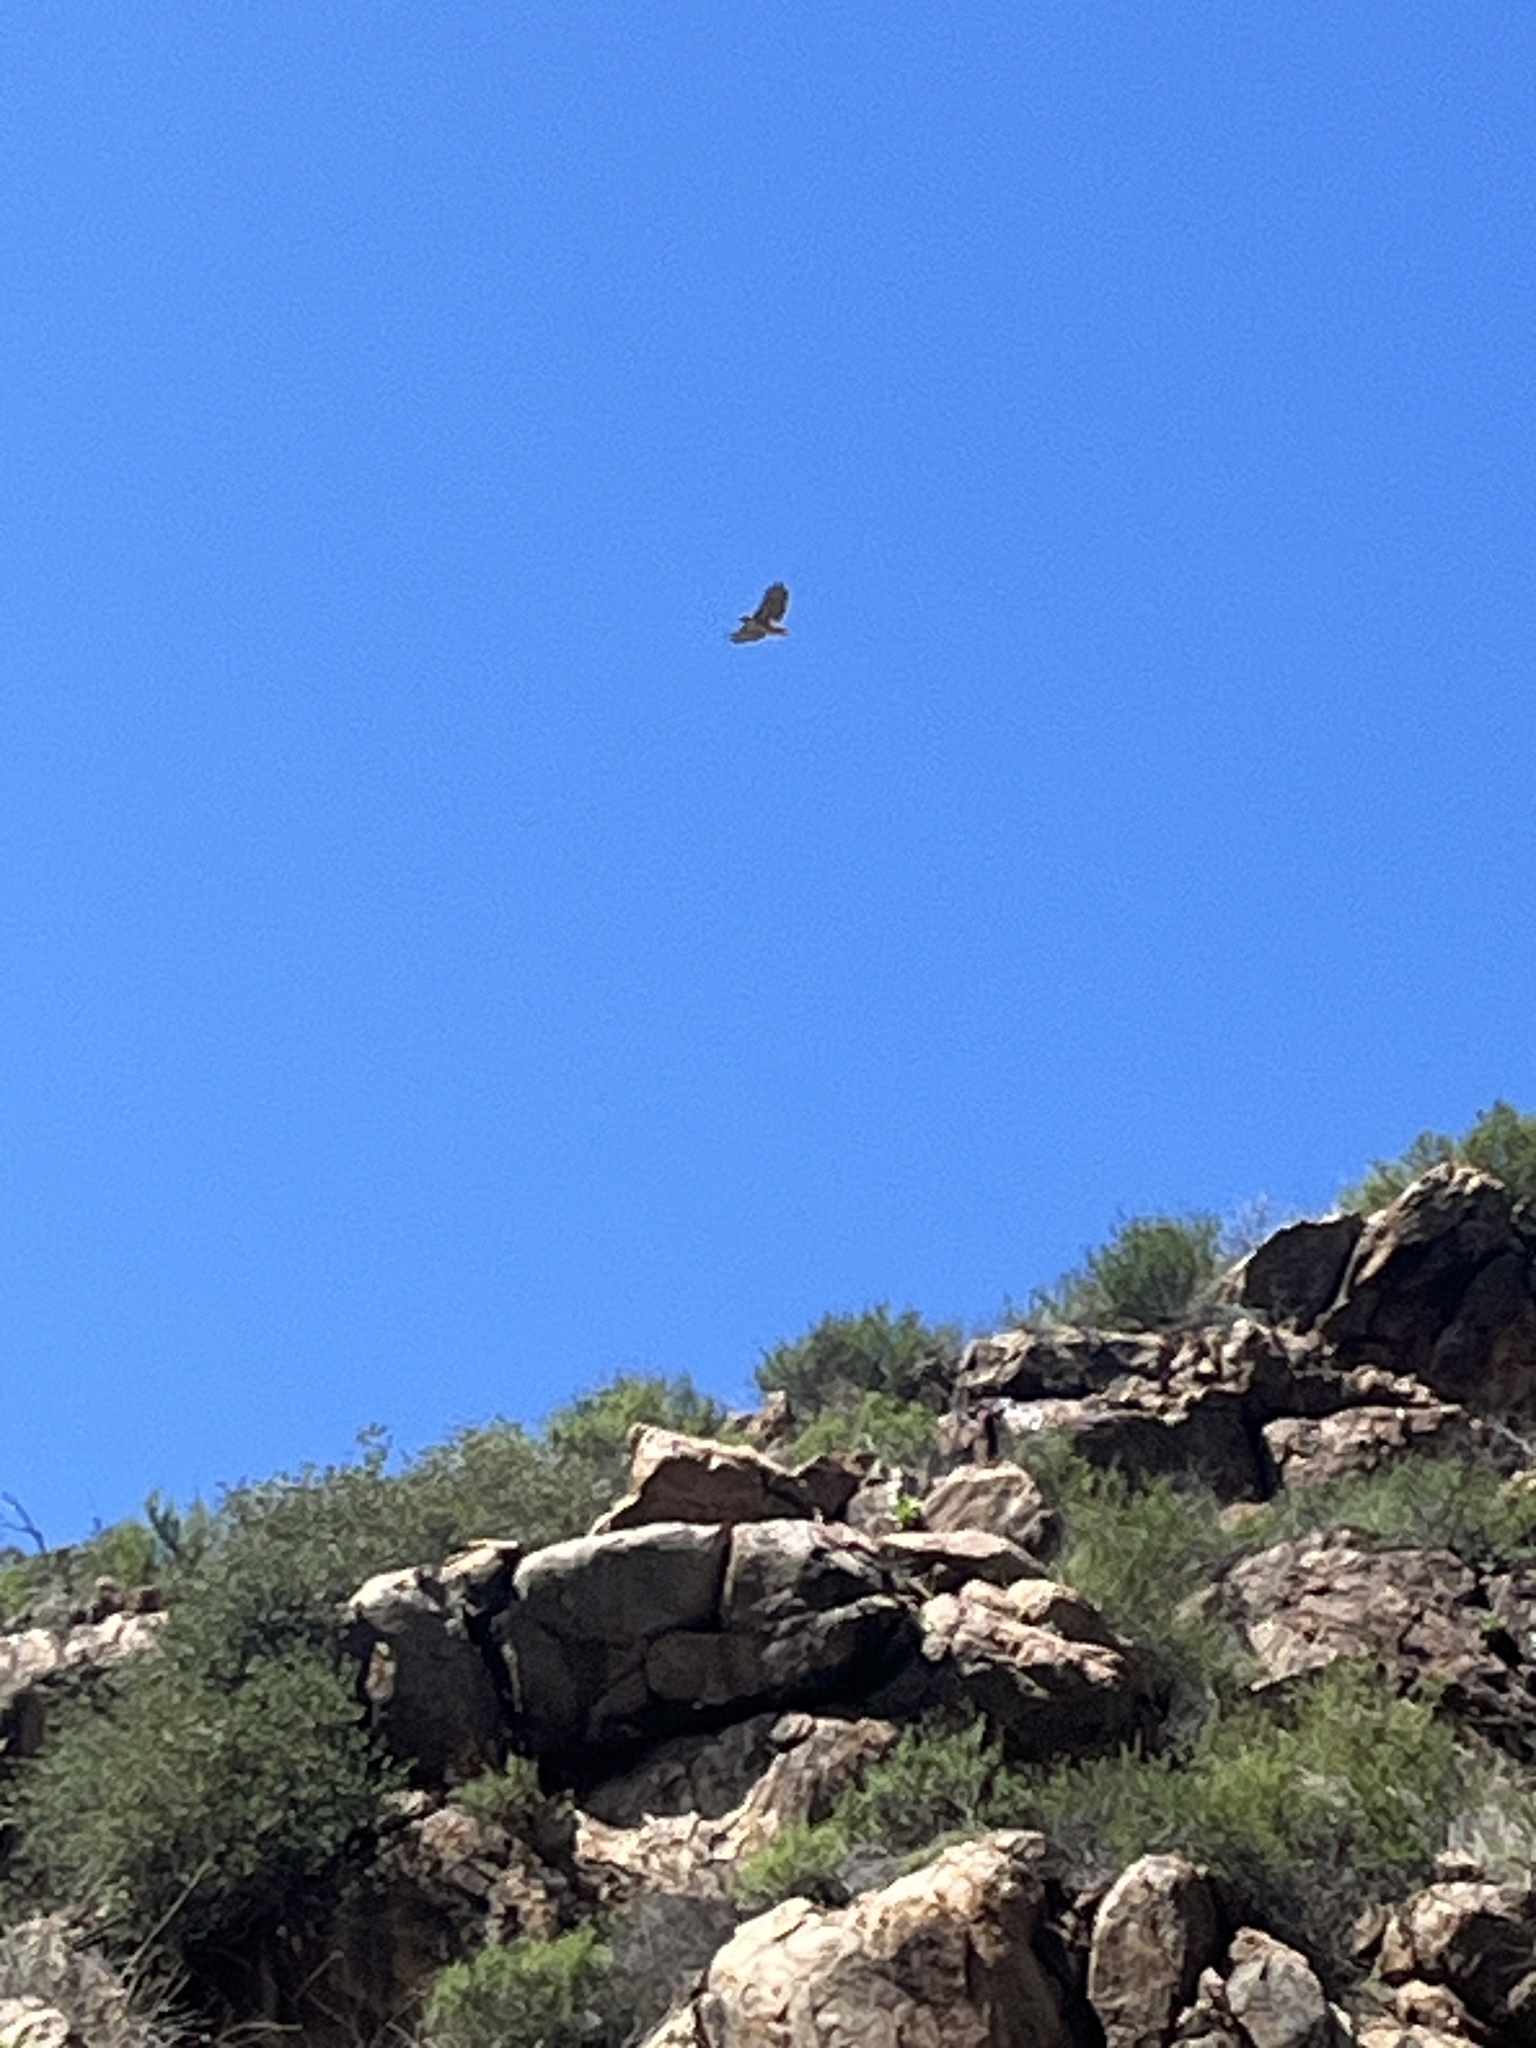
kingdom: Animalia
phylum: Chordata
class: Aves
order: Accipitriformes
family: Accipitridae
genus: Buteo
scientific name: Buteo jamaicensis
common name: Red-tailed hawk
